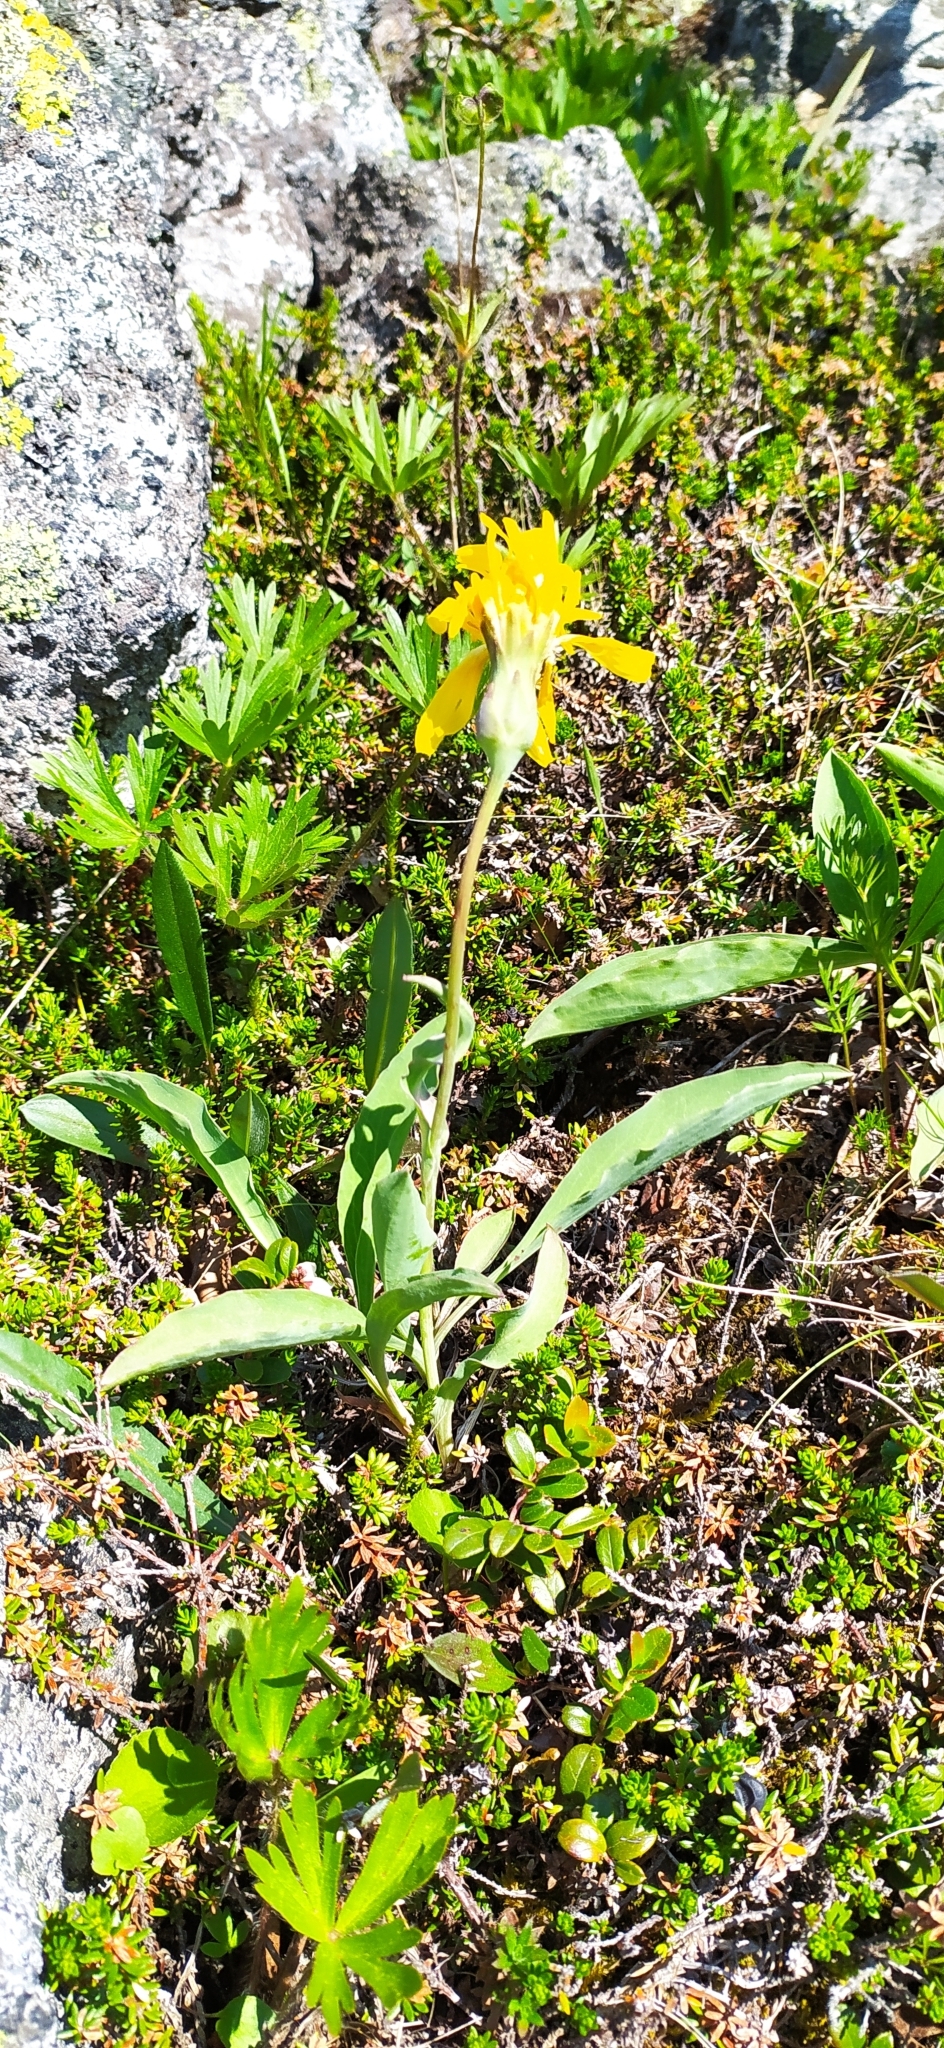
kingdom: Plantae
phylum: Tracheophyta
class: Magnoliopsida
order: Asterales
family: Asteraceae
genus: Scorzonera
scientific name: Scorzonera glabra
